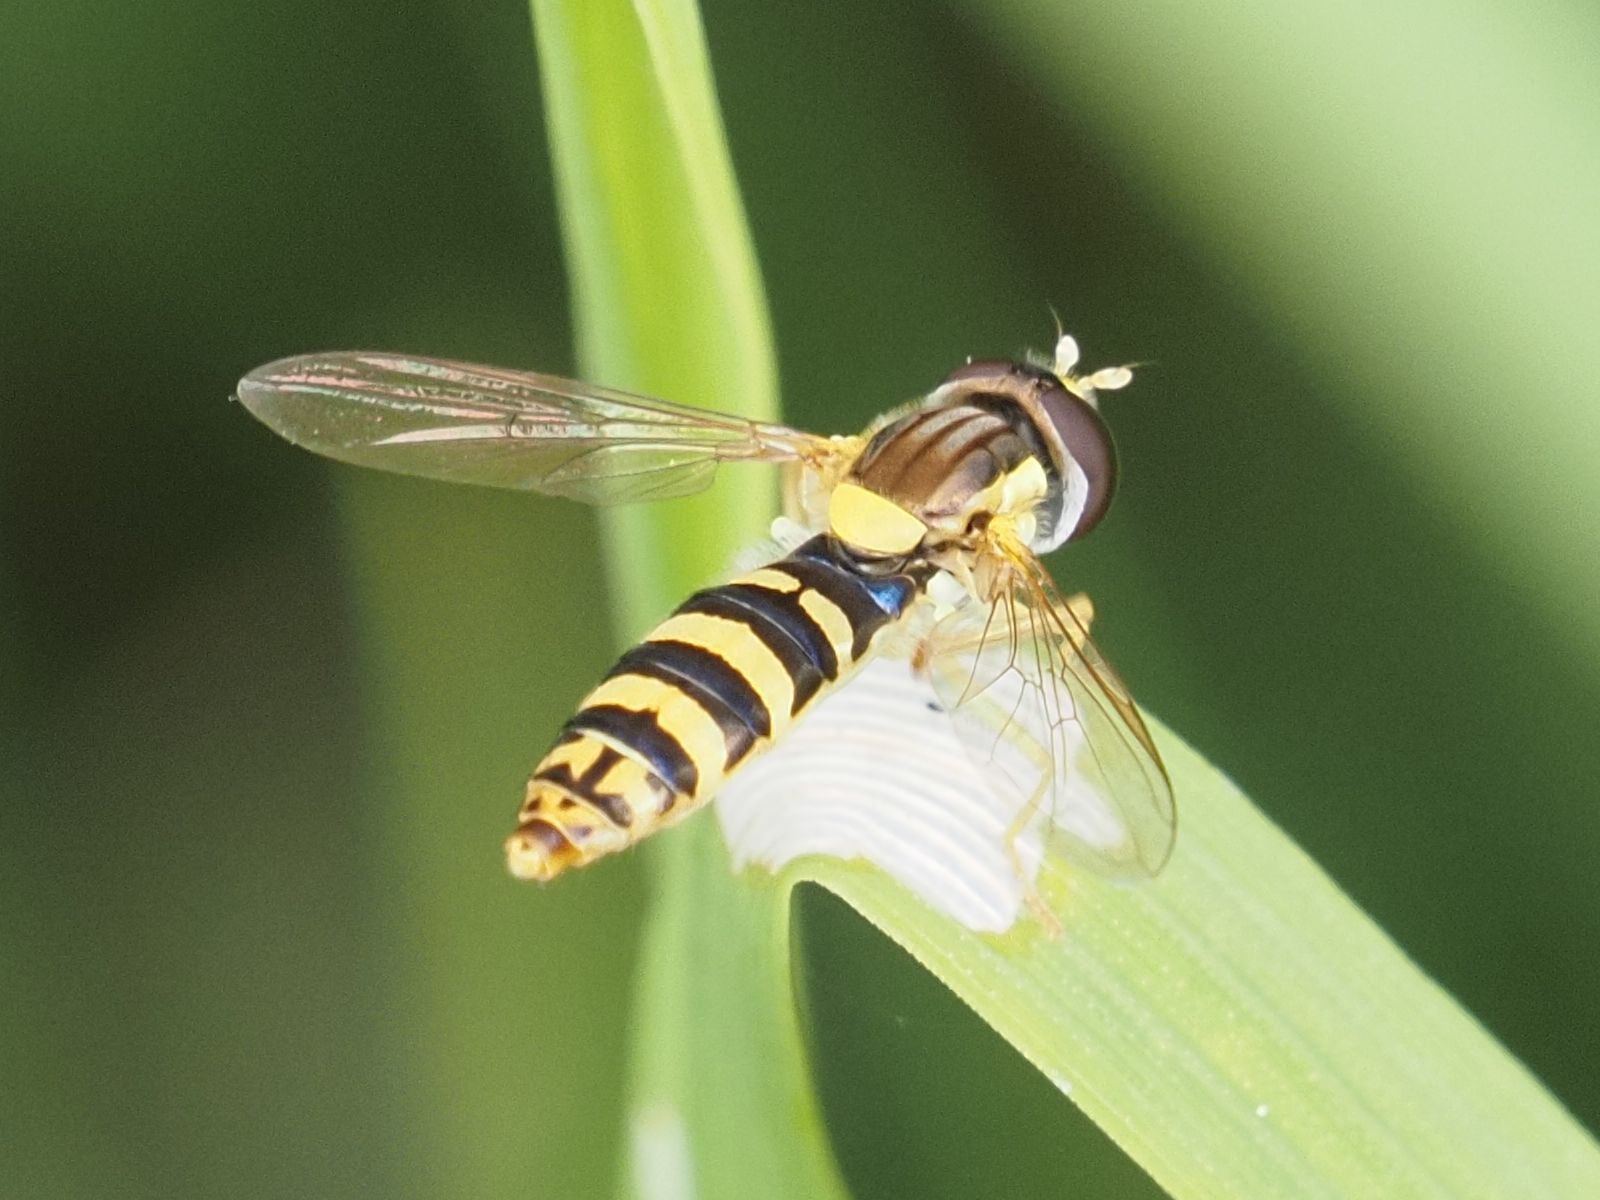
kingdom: Animalia
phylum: Arthropoda
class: Insecta
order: Diptera
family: Syrphidae
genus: Sphaerophoria
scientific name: Sphaerophoria
